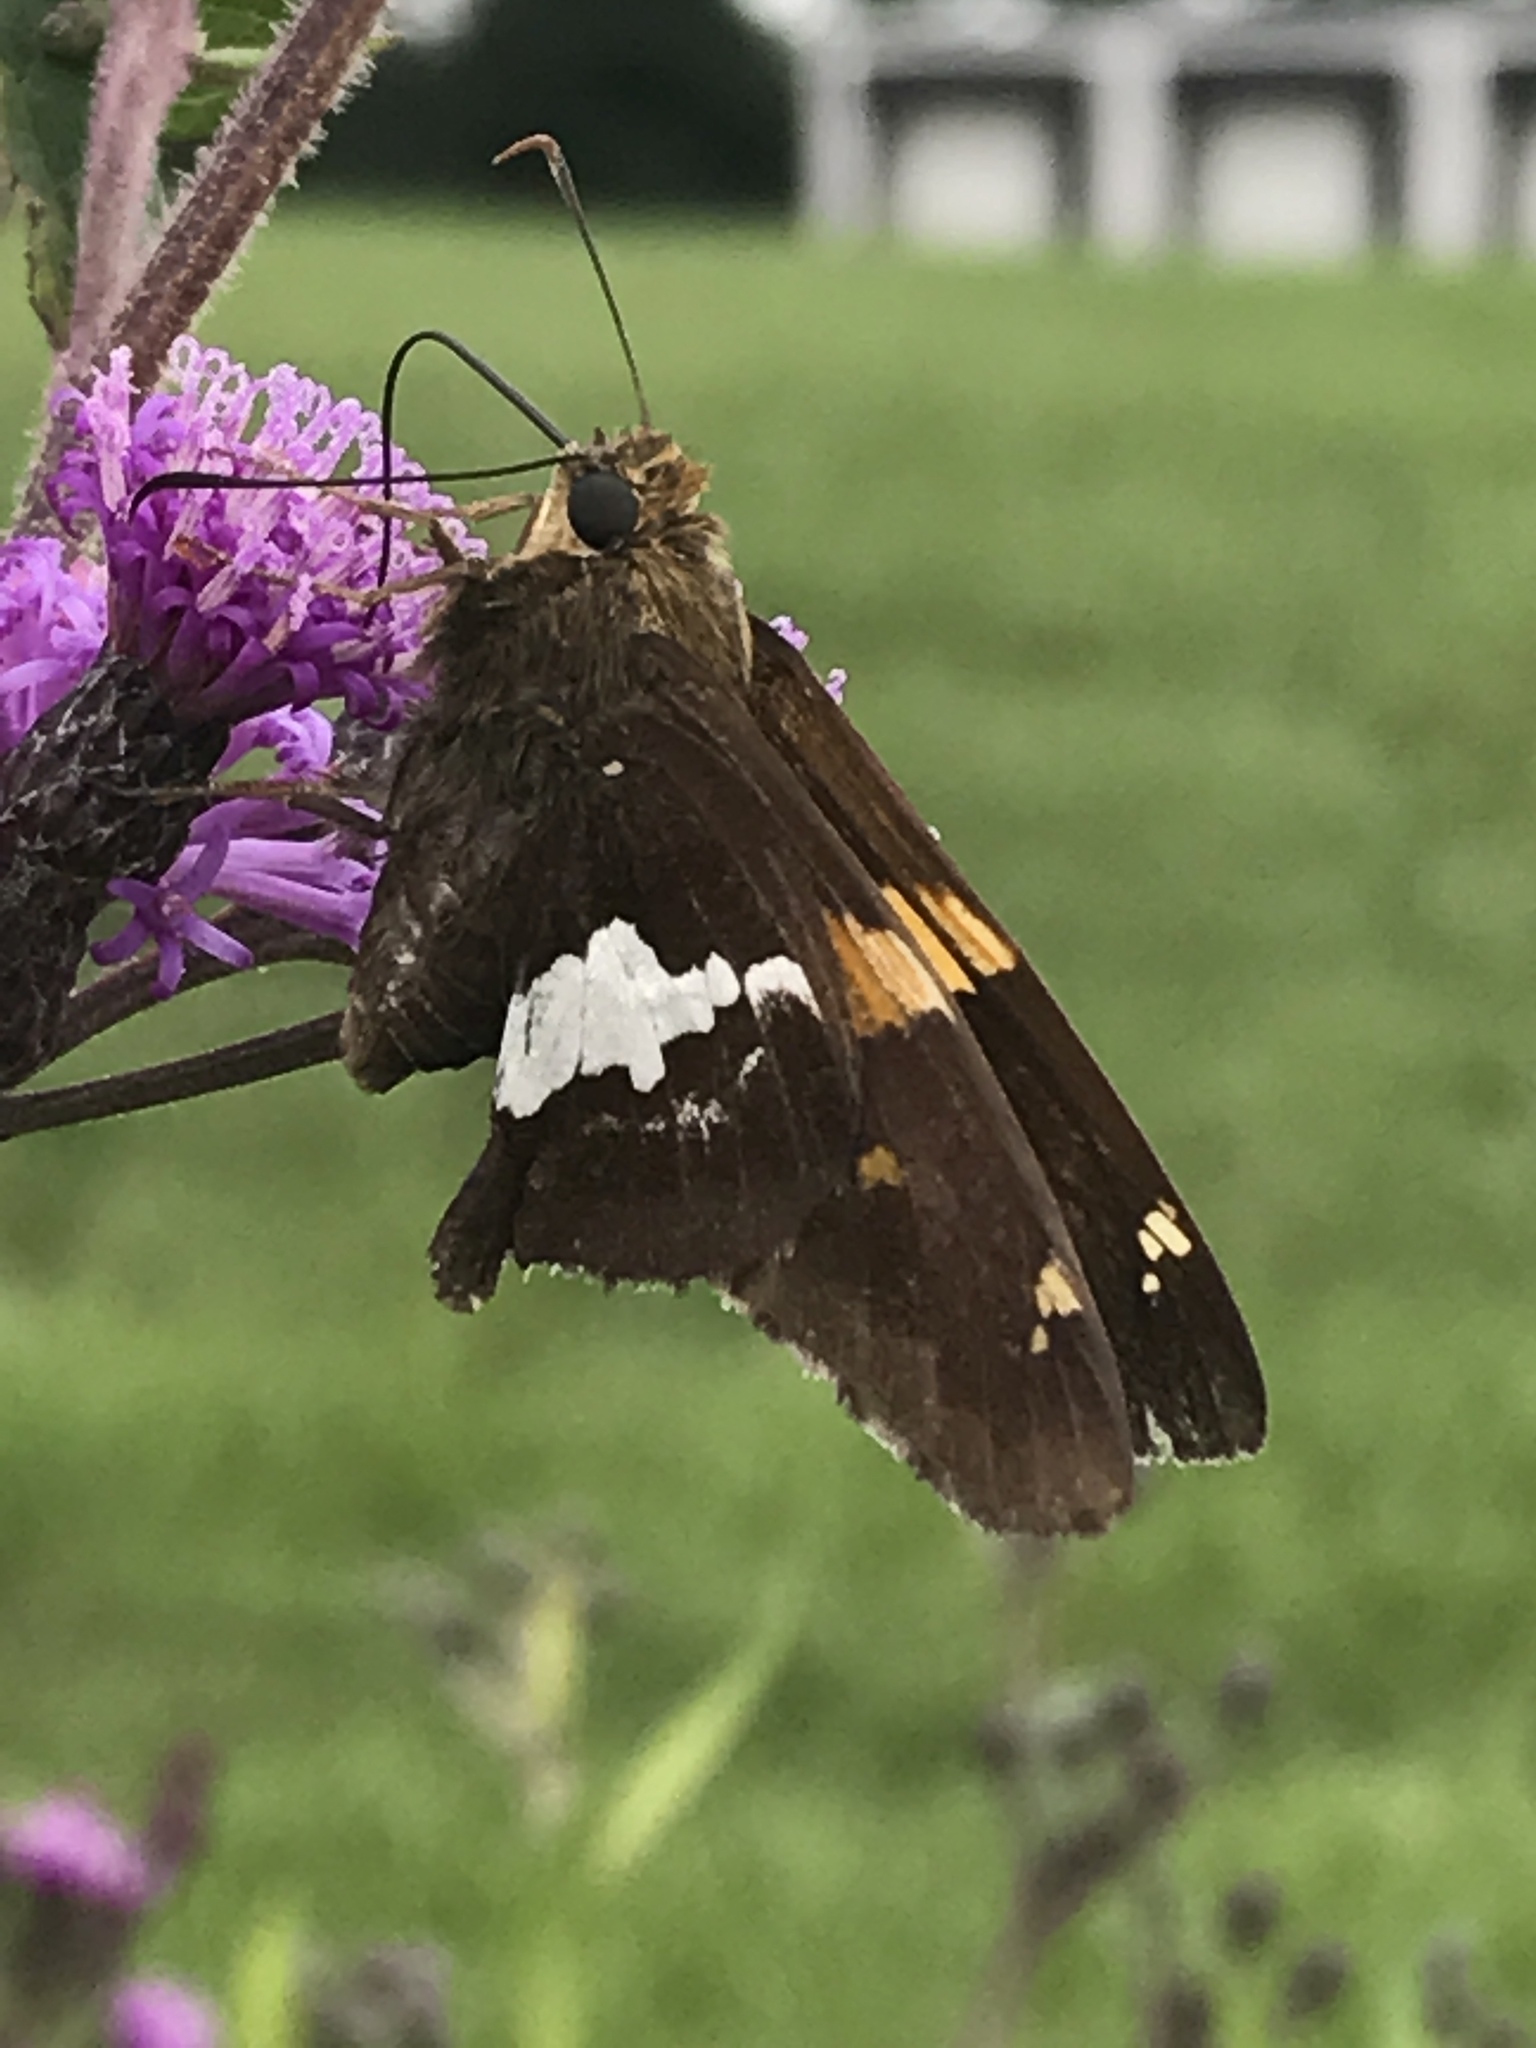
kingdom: Animalia
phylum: Arthropoda
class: Insecta
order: Lepidoptera
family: Hesperiidae
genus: Epargyreus
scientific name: Epargyreus clarus
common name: Silver-spotted skipper
